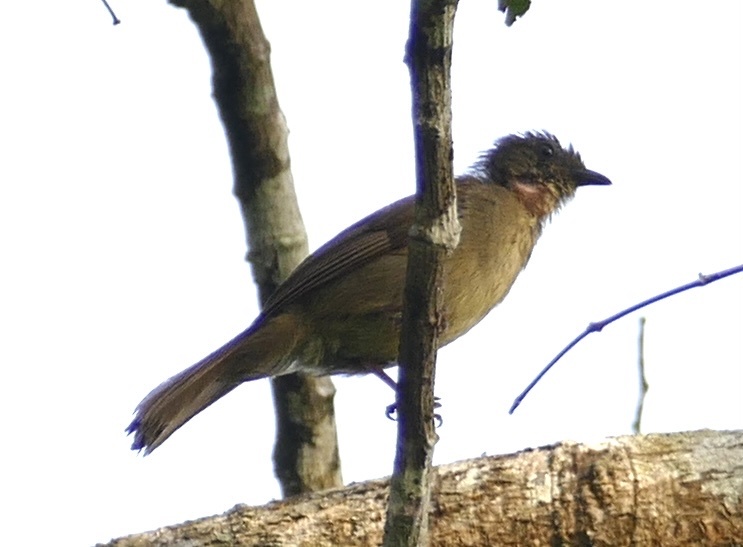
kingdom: Animalia
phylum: Chordata
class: Aves
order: Passeriformes
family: Pycnonotidae
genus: Eurillas
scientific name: Eurillas virens
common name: Little greenbul
